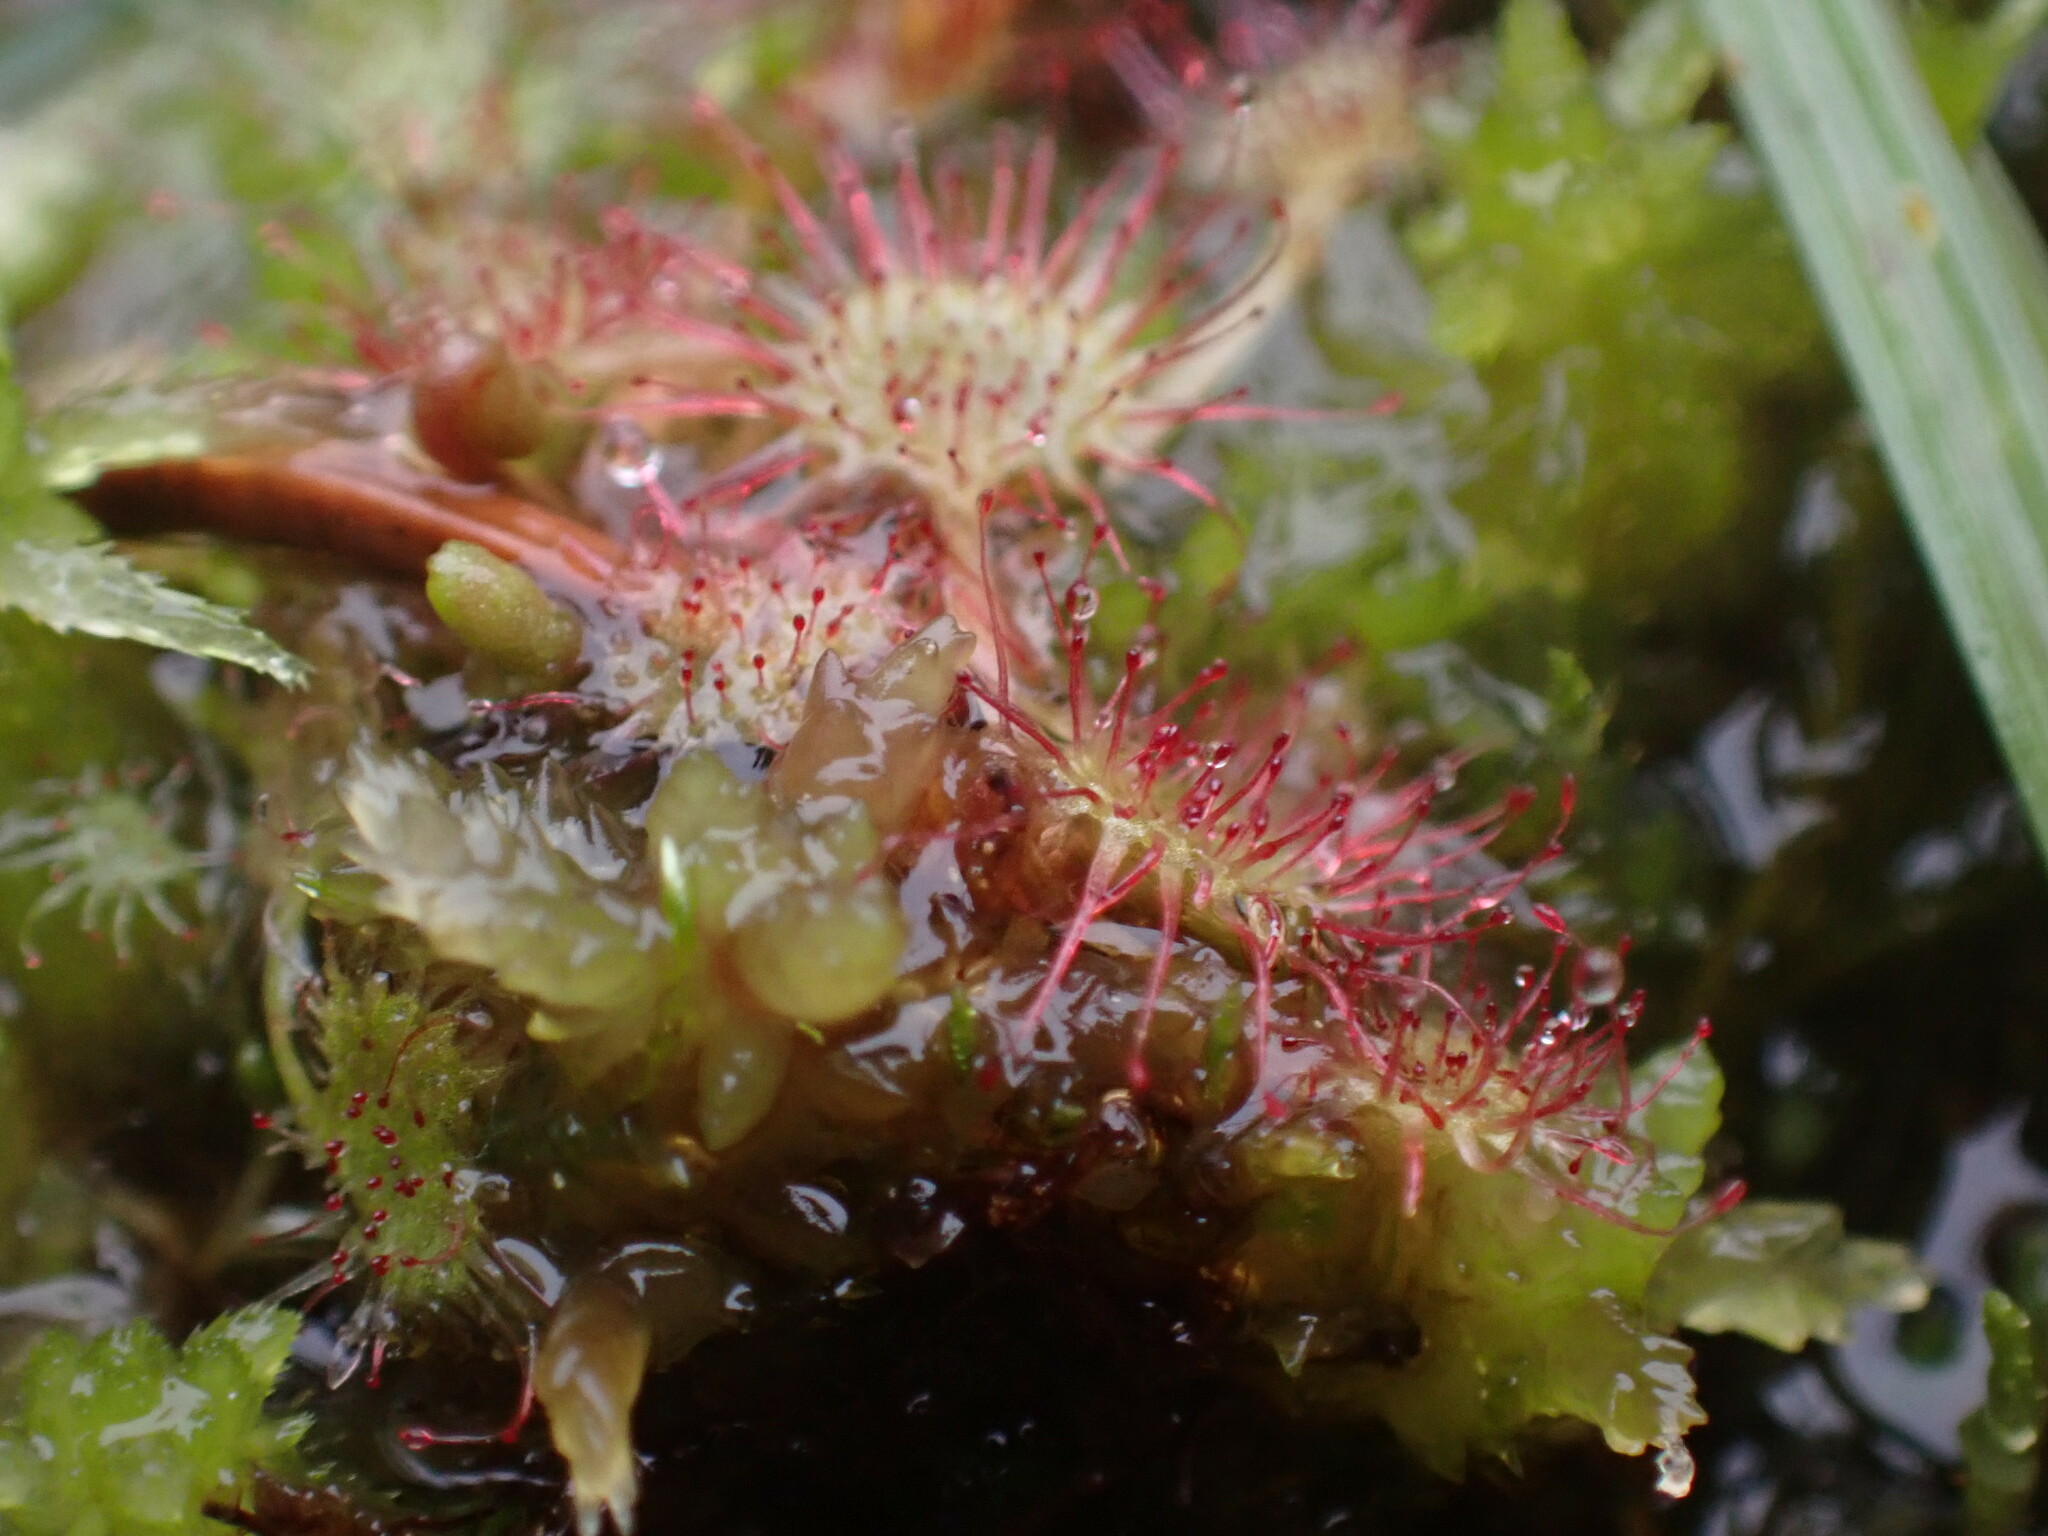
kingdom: Plantae
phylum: Tracheophyta
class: Magnoliopsida
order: Caryophyllales
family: Droseraceae
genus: Drosera
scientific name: Drosera rotundifolia
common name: Round-leaved sundew
